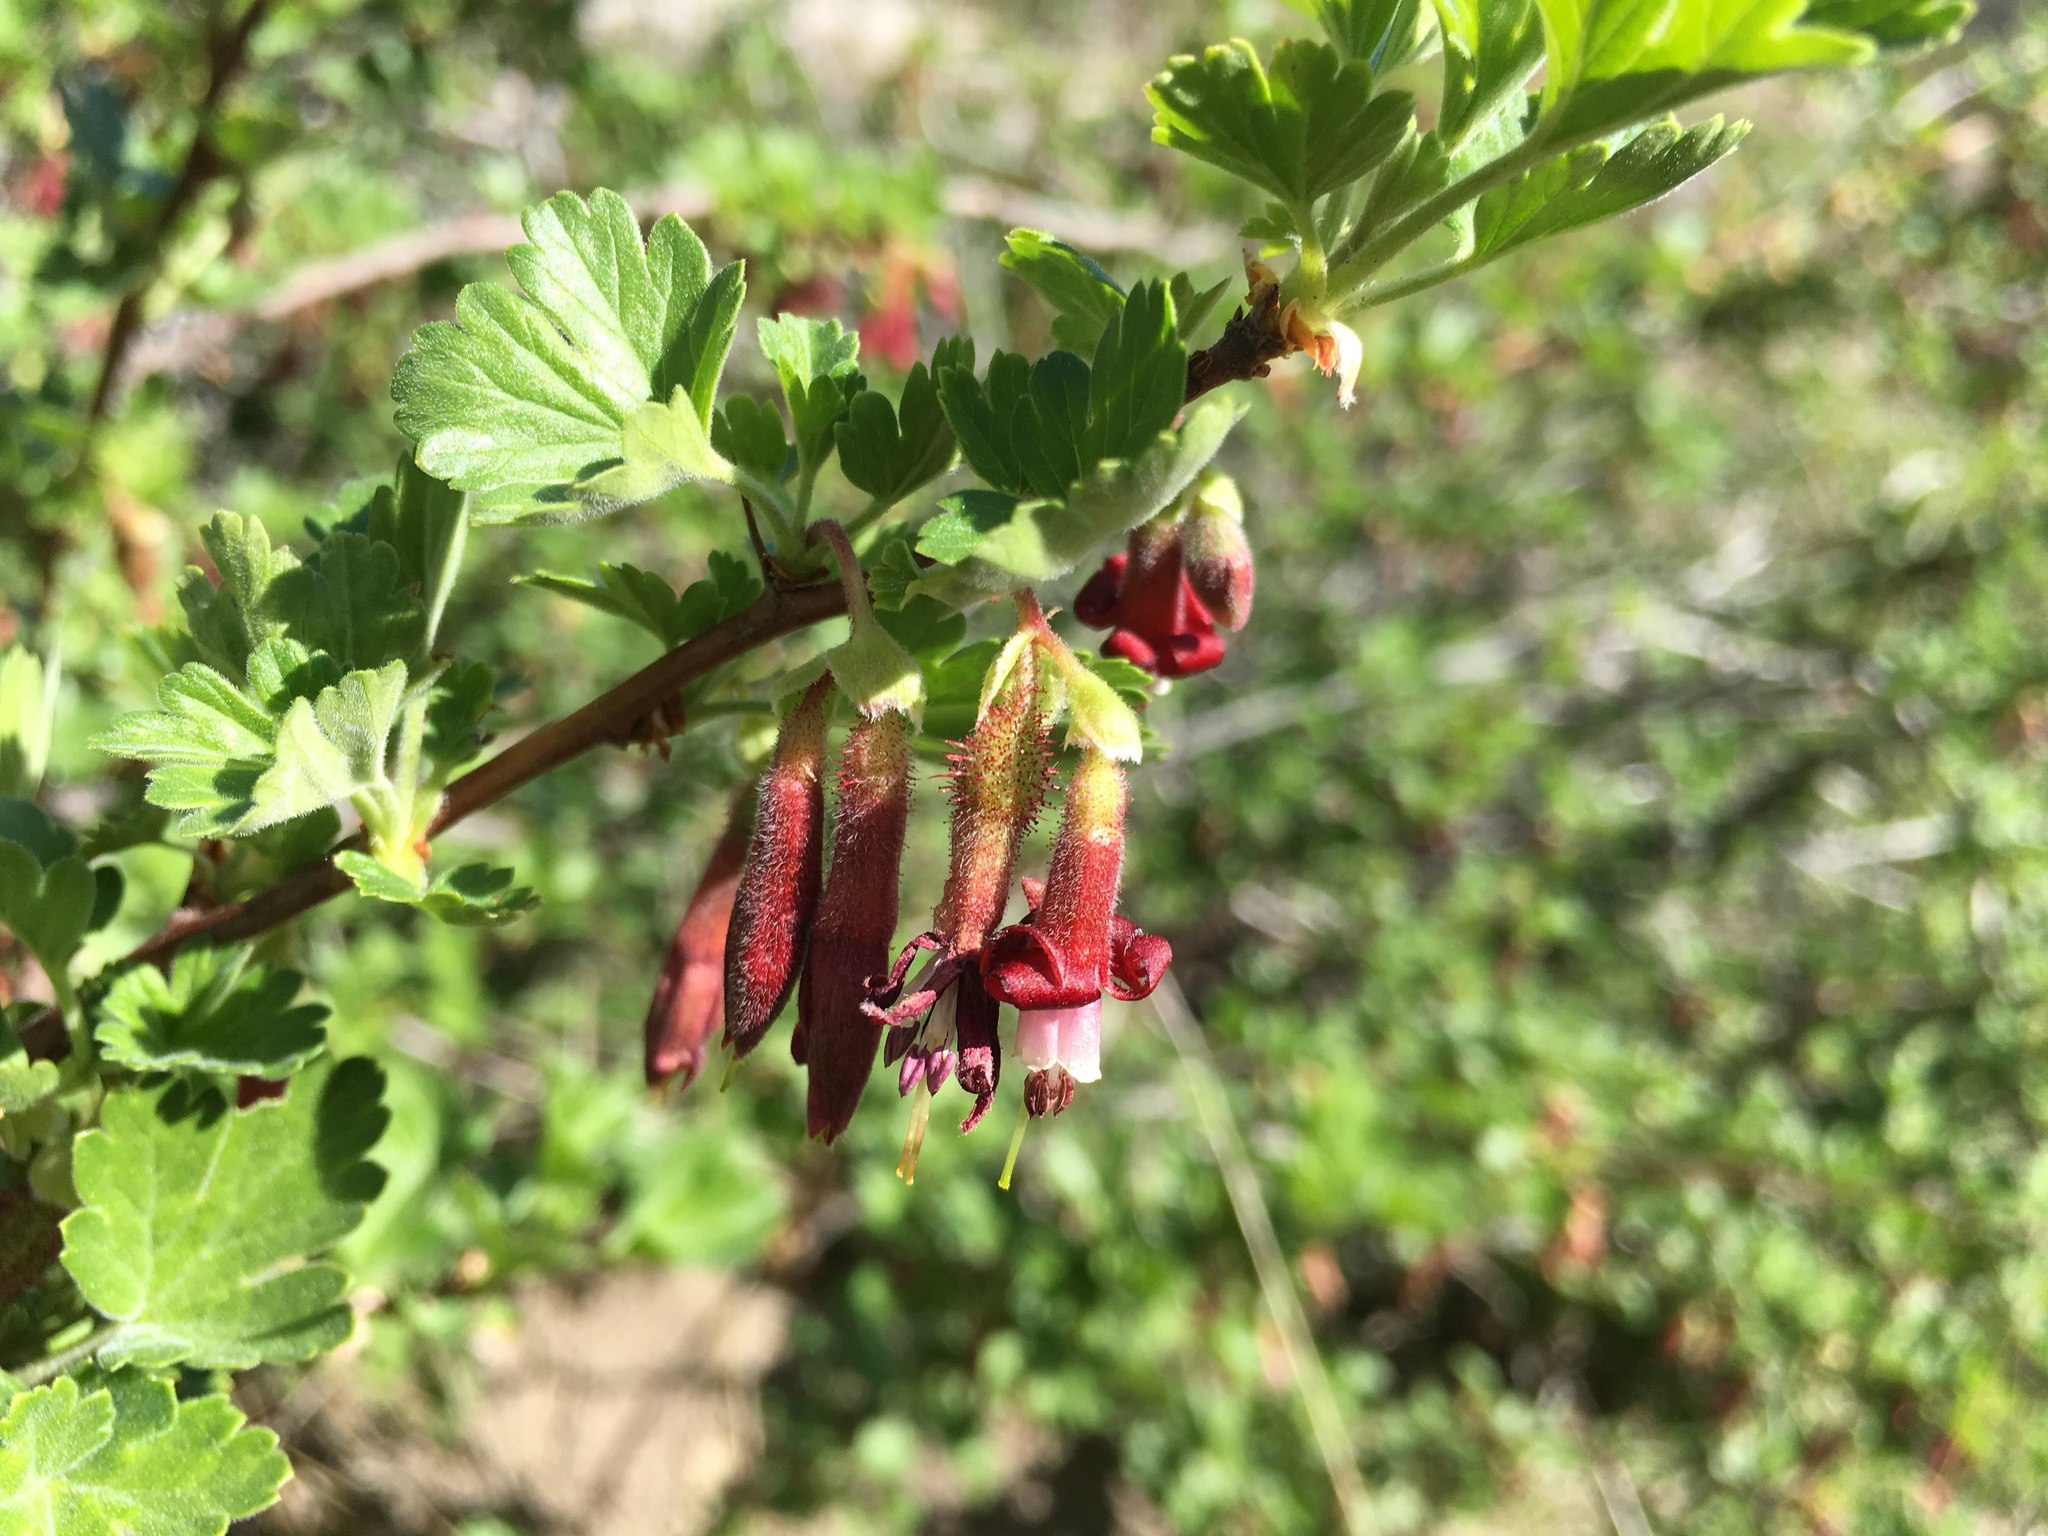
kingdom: Plantae
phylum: Tracheophyta
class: Magnoliopsida
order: Saxifragales
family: Grossulariaceae
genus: Ribes
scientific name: Ribes roezlii
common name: Sierra gooseberry
